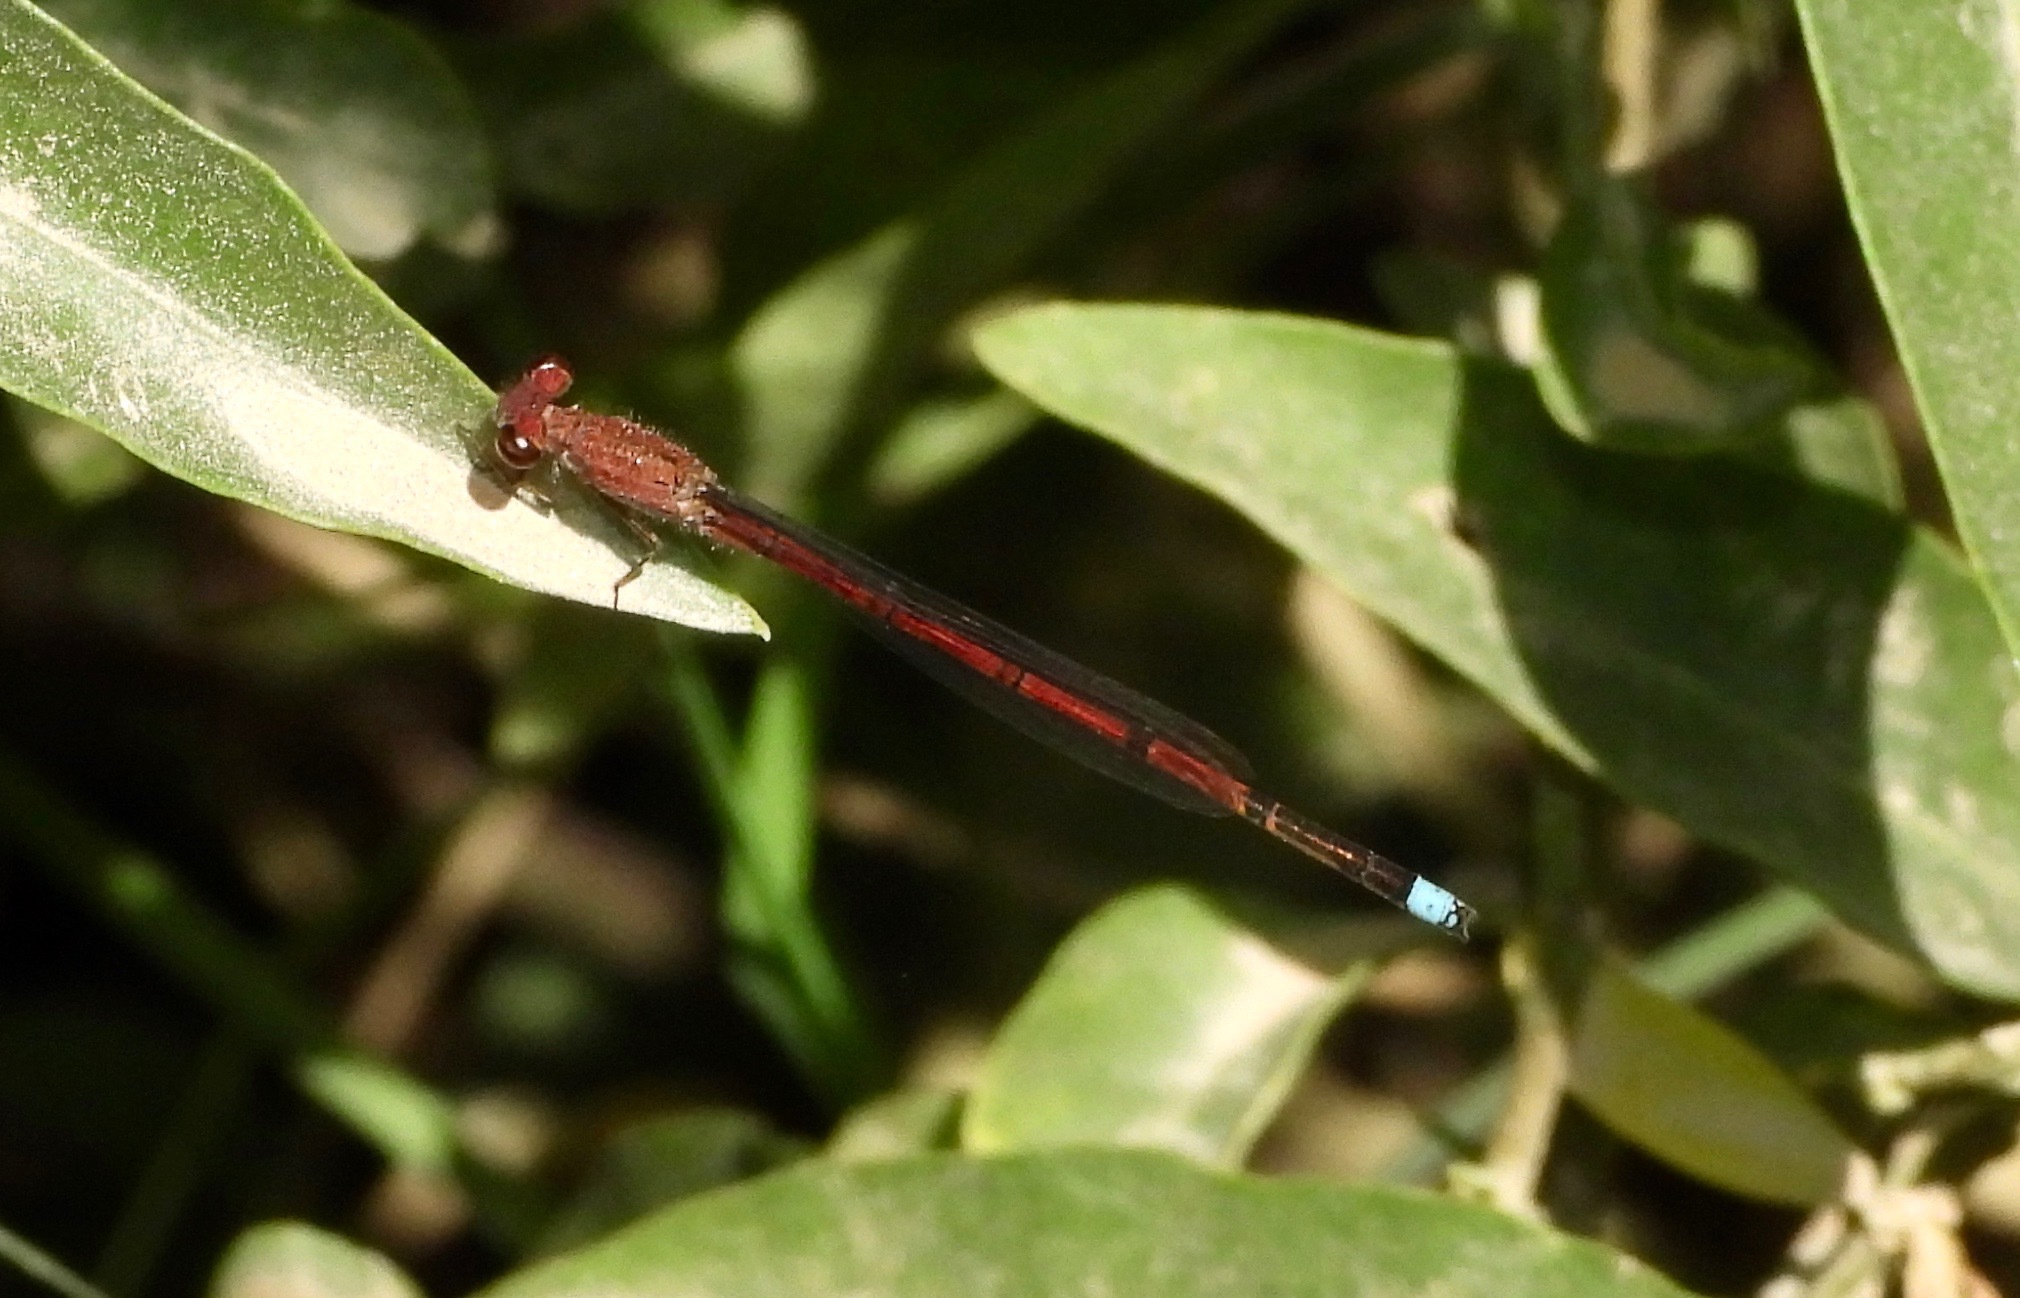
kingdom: Animalia
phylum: Arthropoda
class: Insecta
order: Odonata
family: Coenagrionidae
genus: Oxyagrion
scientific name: Oxyagrion terminale
